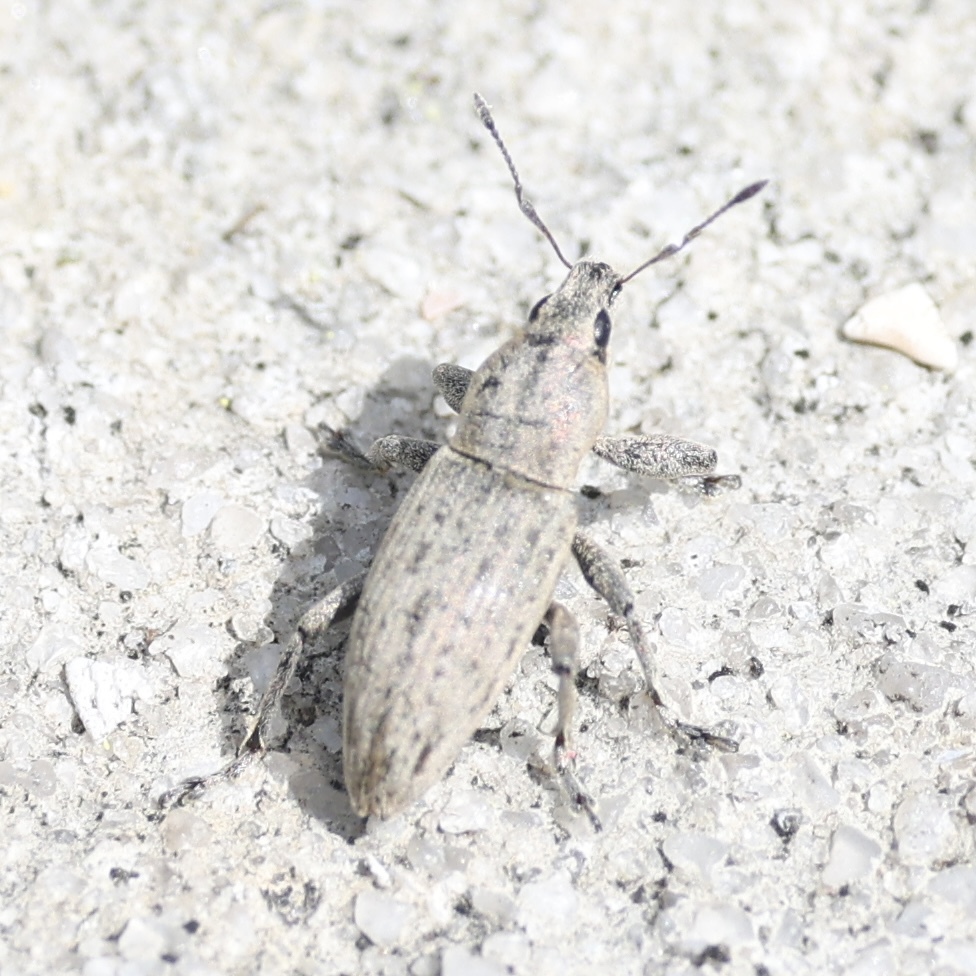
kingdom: Animalia
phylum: Arthropoda
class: Insecta
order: Coleoptera
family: Curculionidae
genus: Tanymecus
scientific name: Tanymecus lacaena
